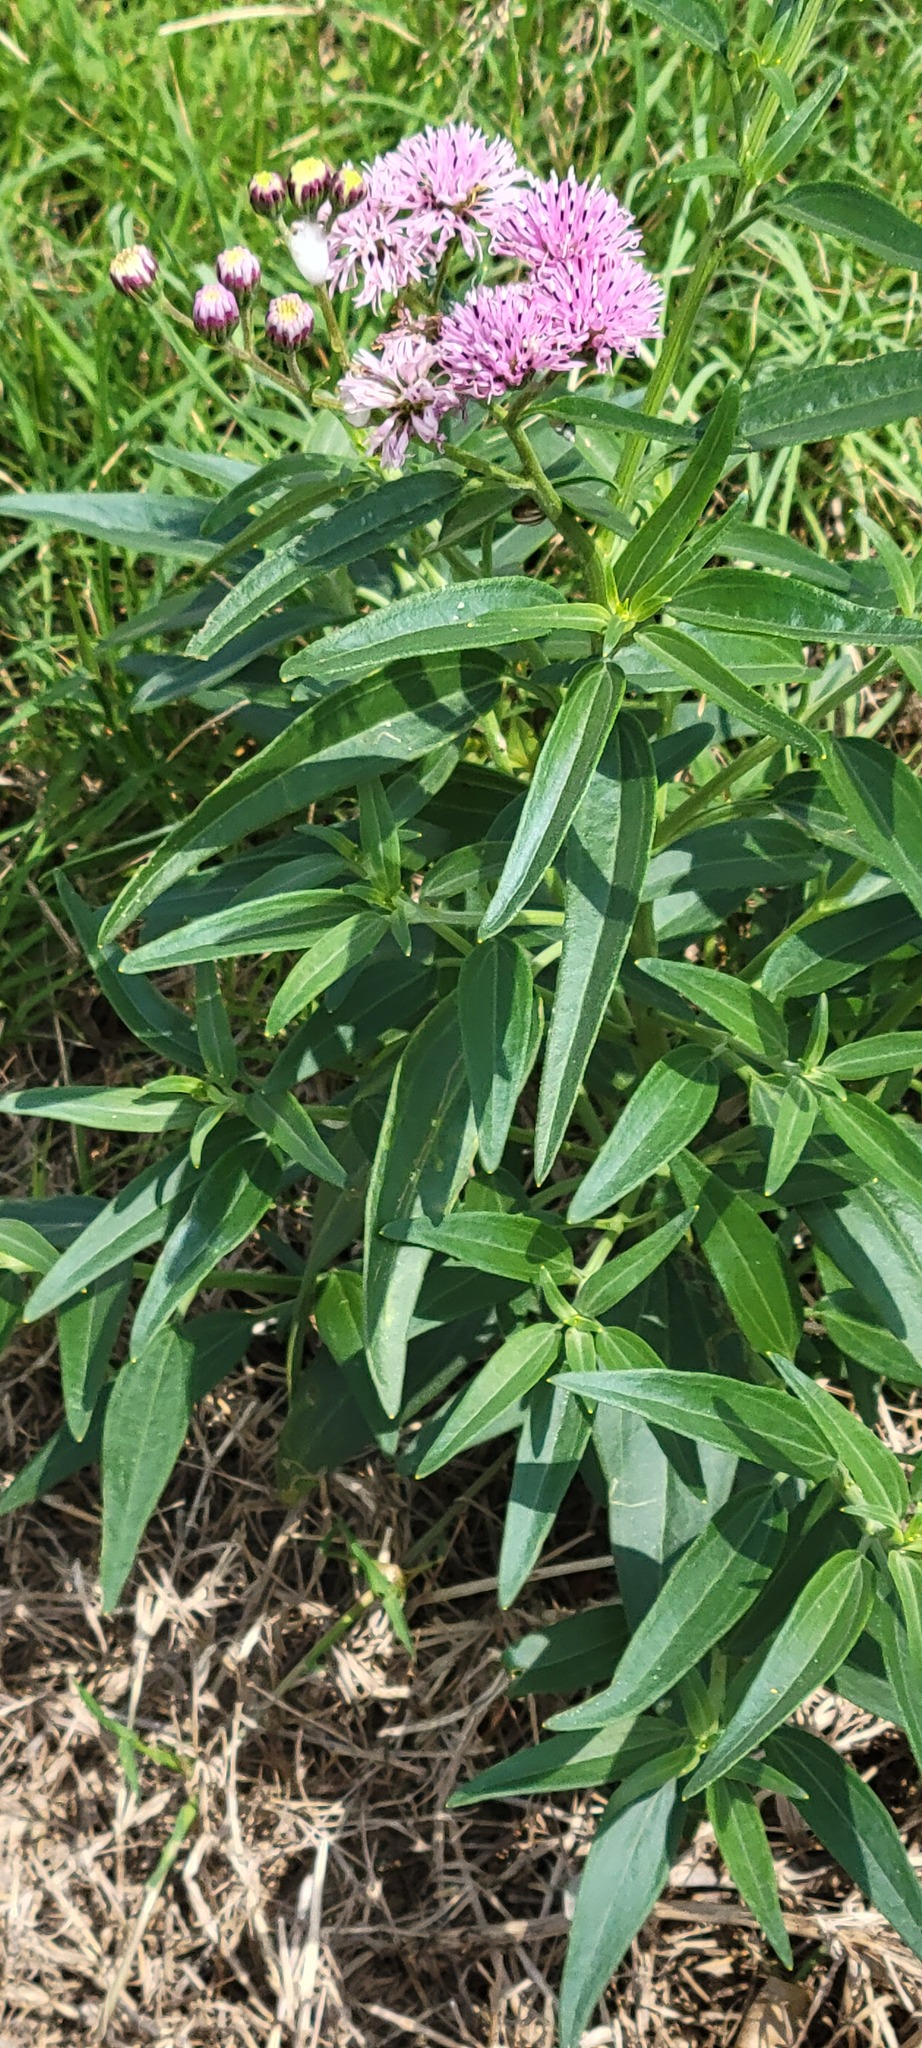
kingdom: Plantae
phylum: Tracheophyta
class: Magnoliopsida
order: Asterales
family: Asteraceae
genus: Palafoxia
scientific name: Palafoxia texana
